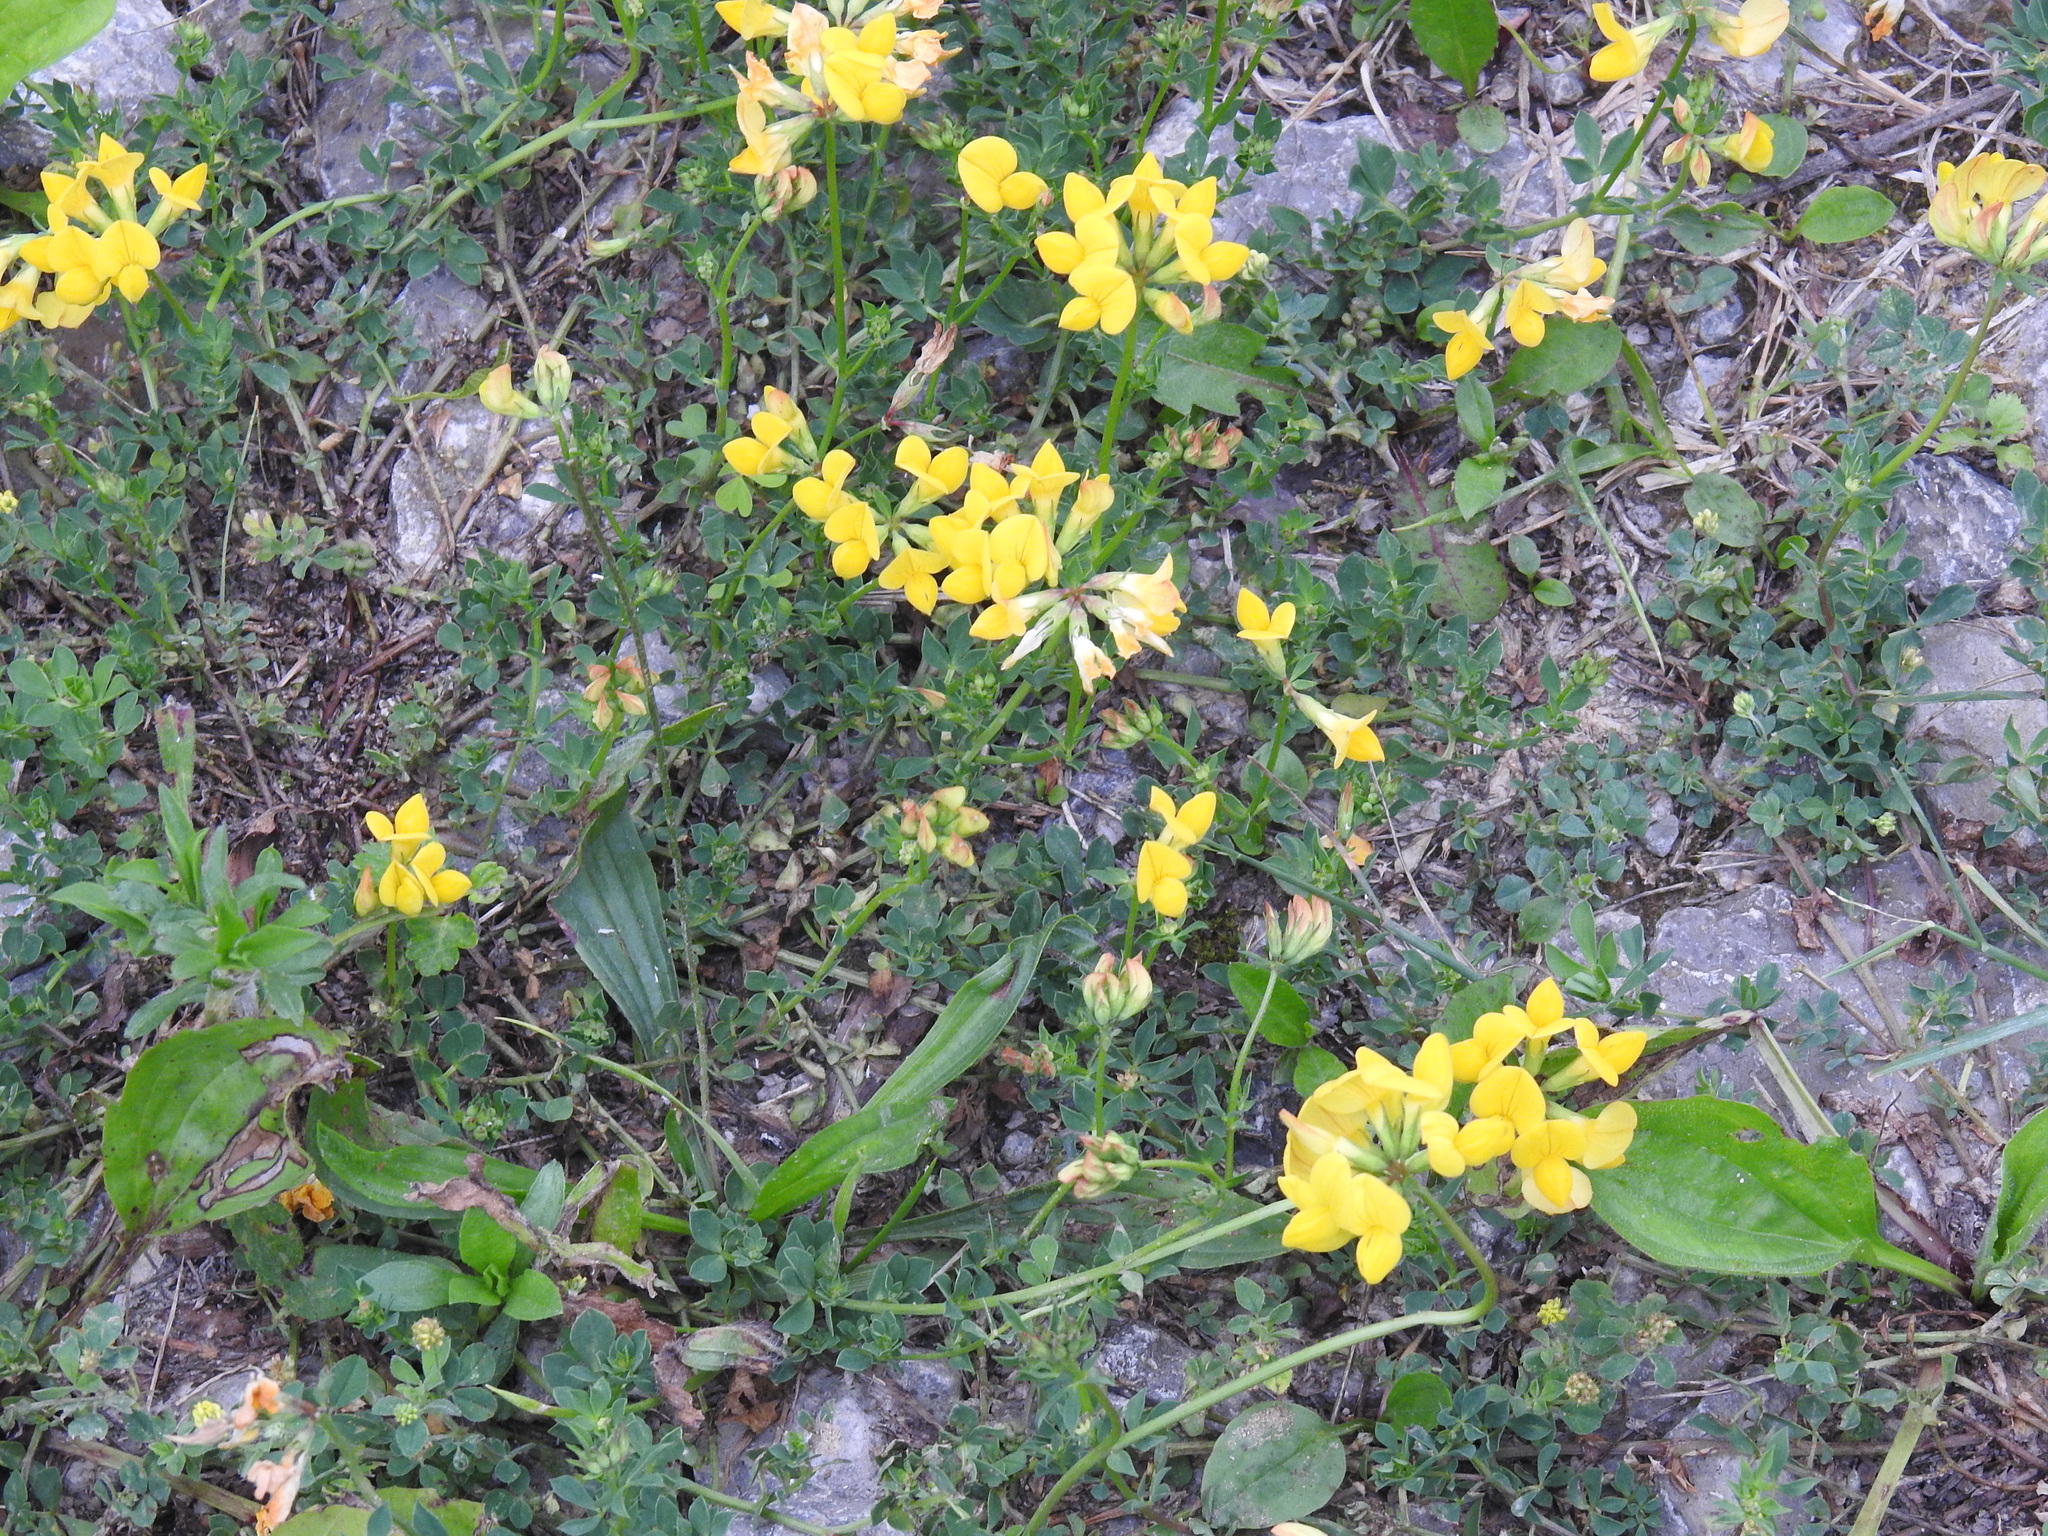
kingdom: Plantae
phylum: Tracheophyta
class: Magnoliopsida
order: Fabales
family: Fabaceae
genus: Lotus
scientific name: Lotus corniculatus
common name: Common bird's-foot-trefoil
